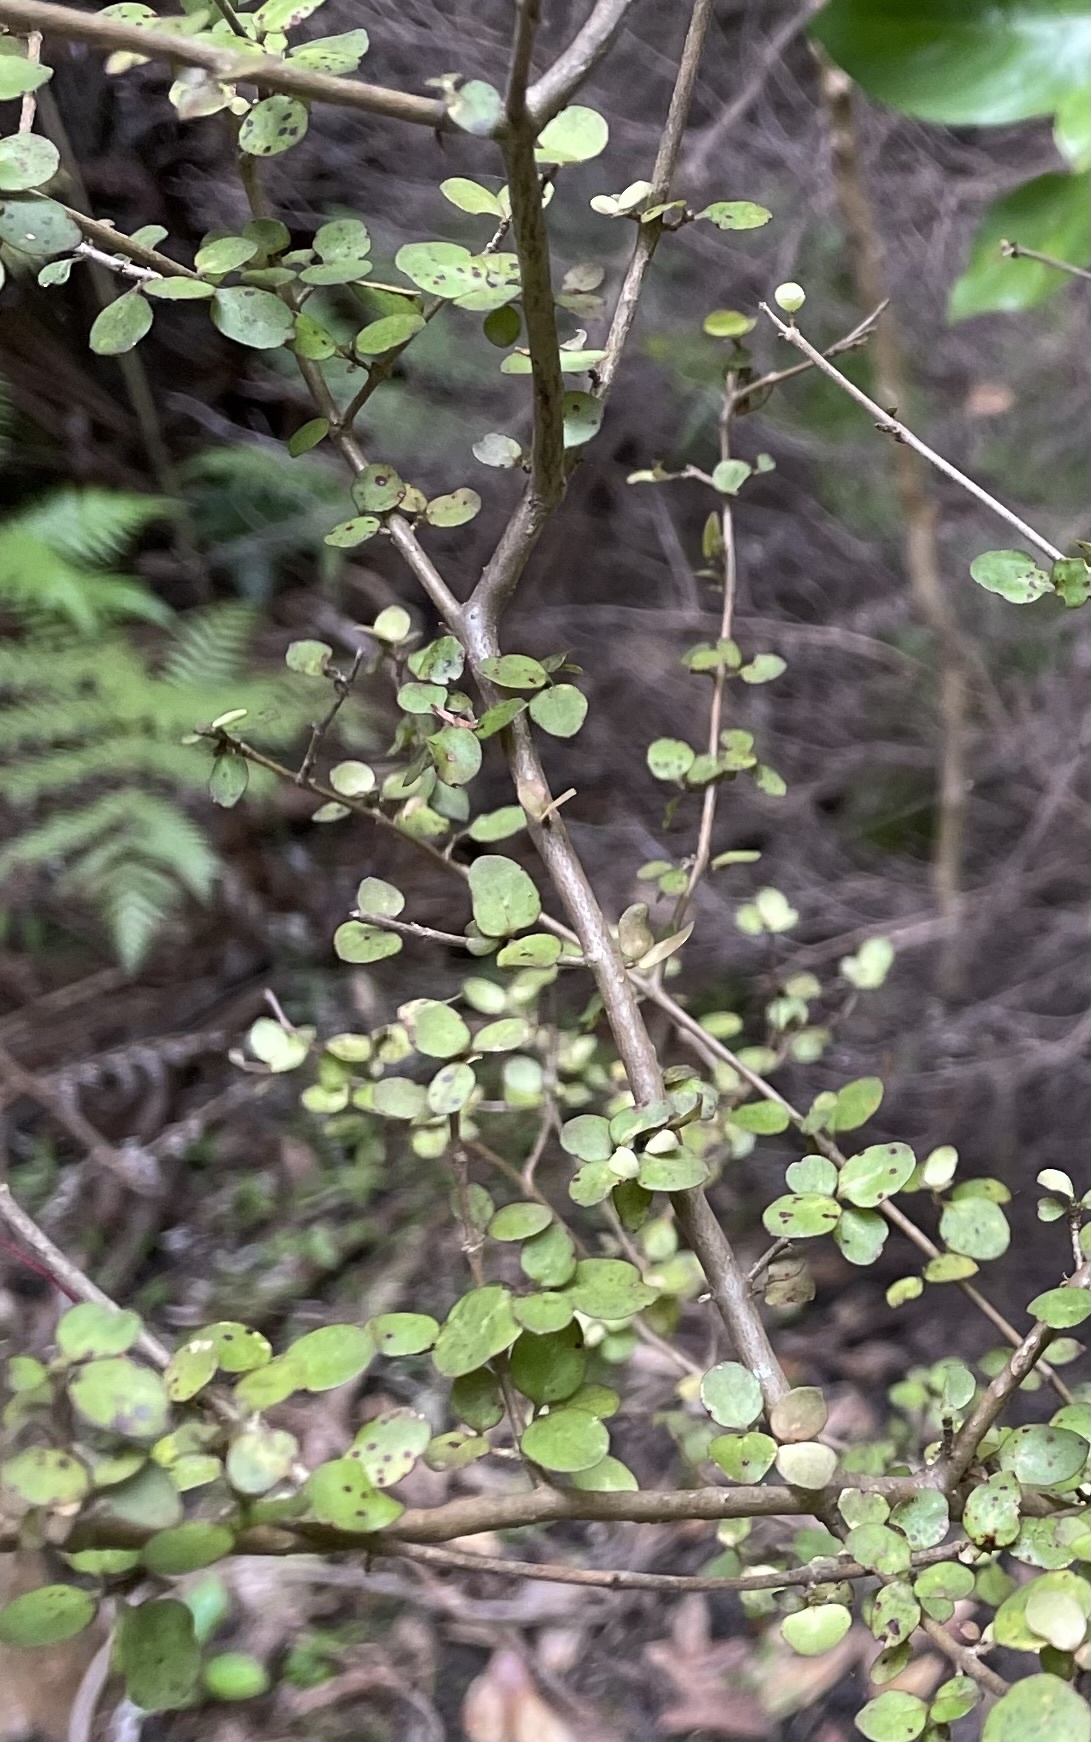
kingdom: Plantae
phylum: Tracheophyta
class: Magnoliopsida
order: Gentianales
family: Rubiaceae
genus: Coprosma
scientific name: Coprosma rhamnoides
